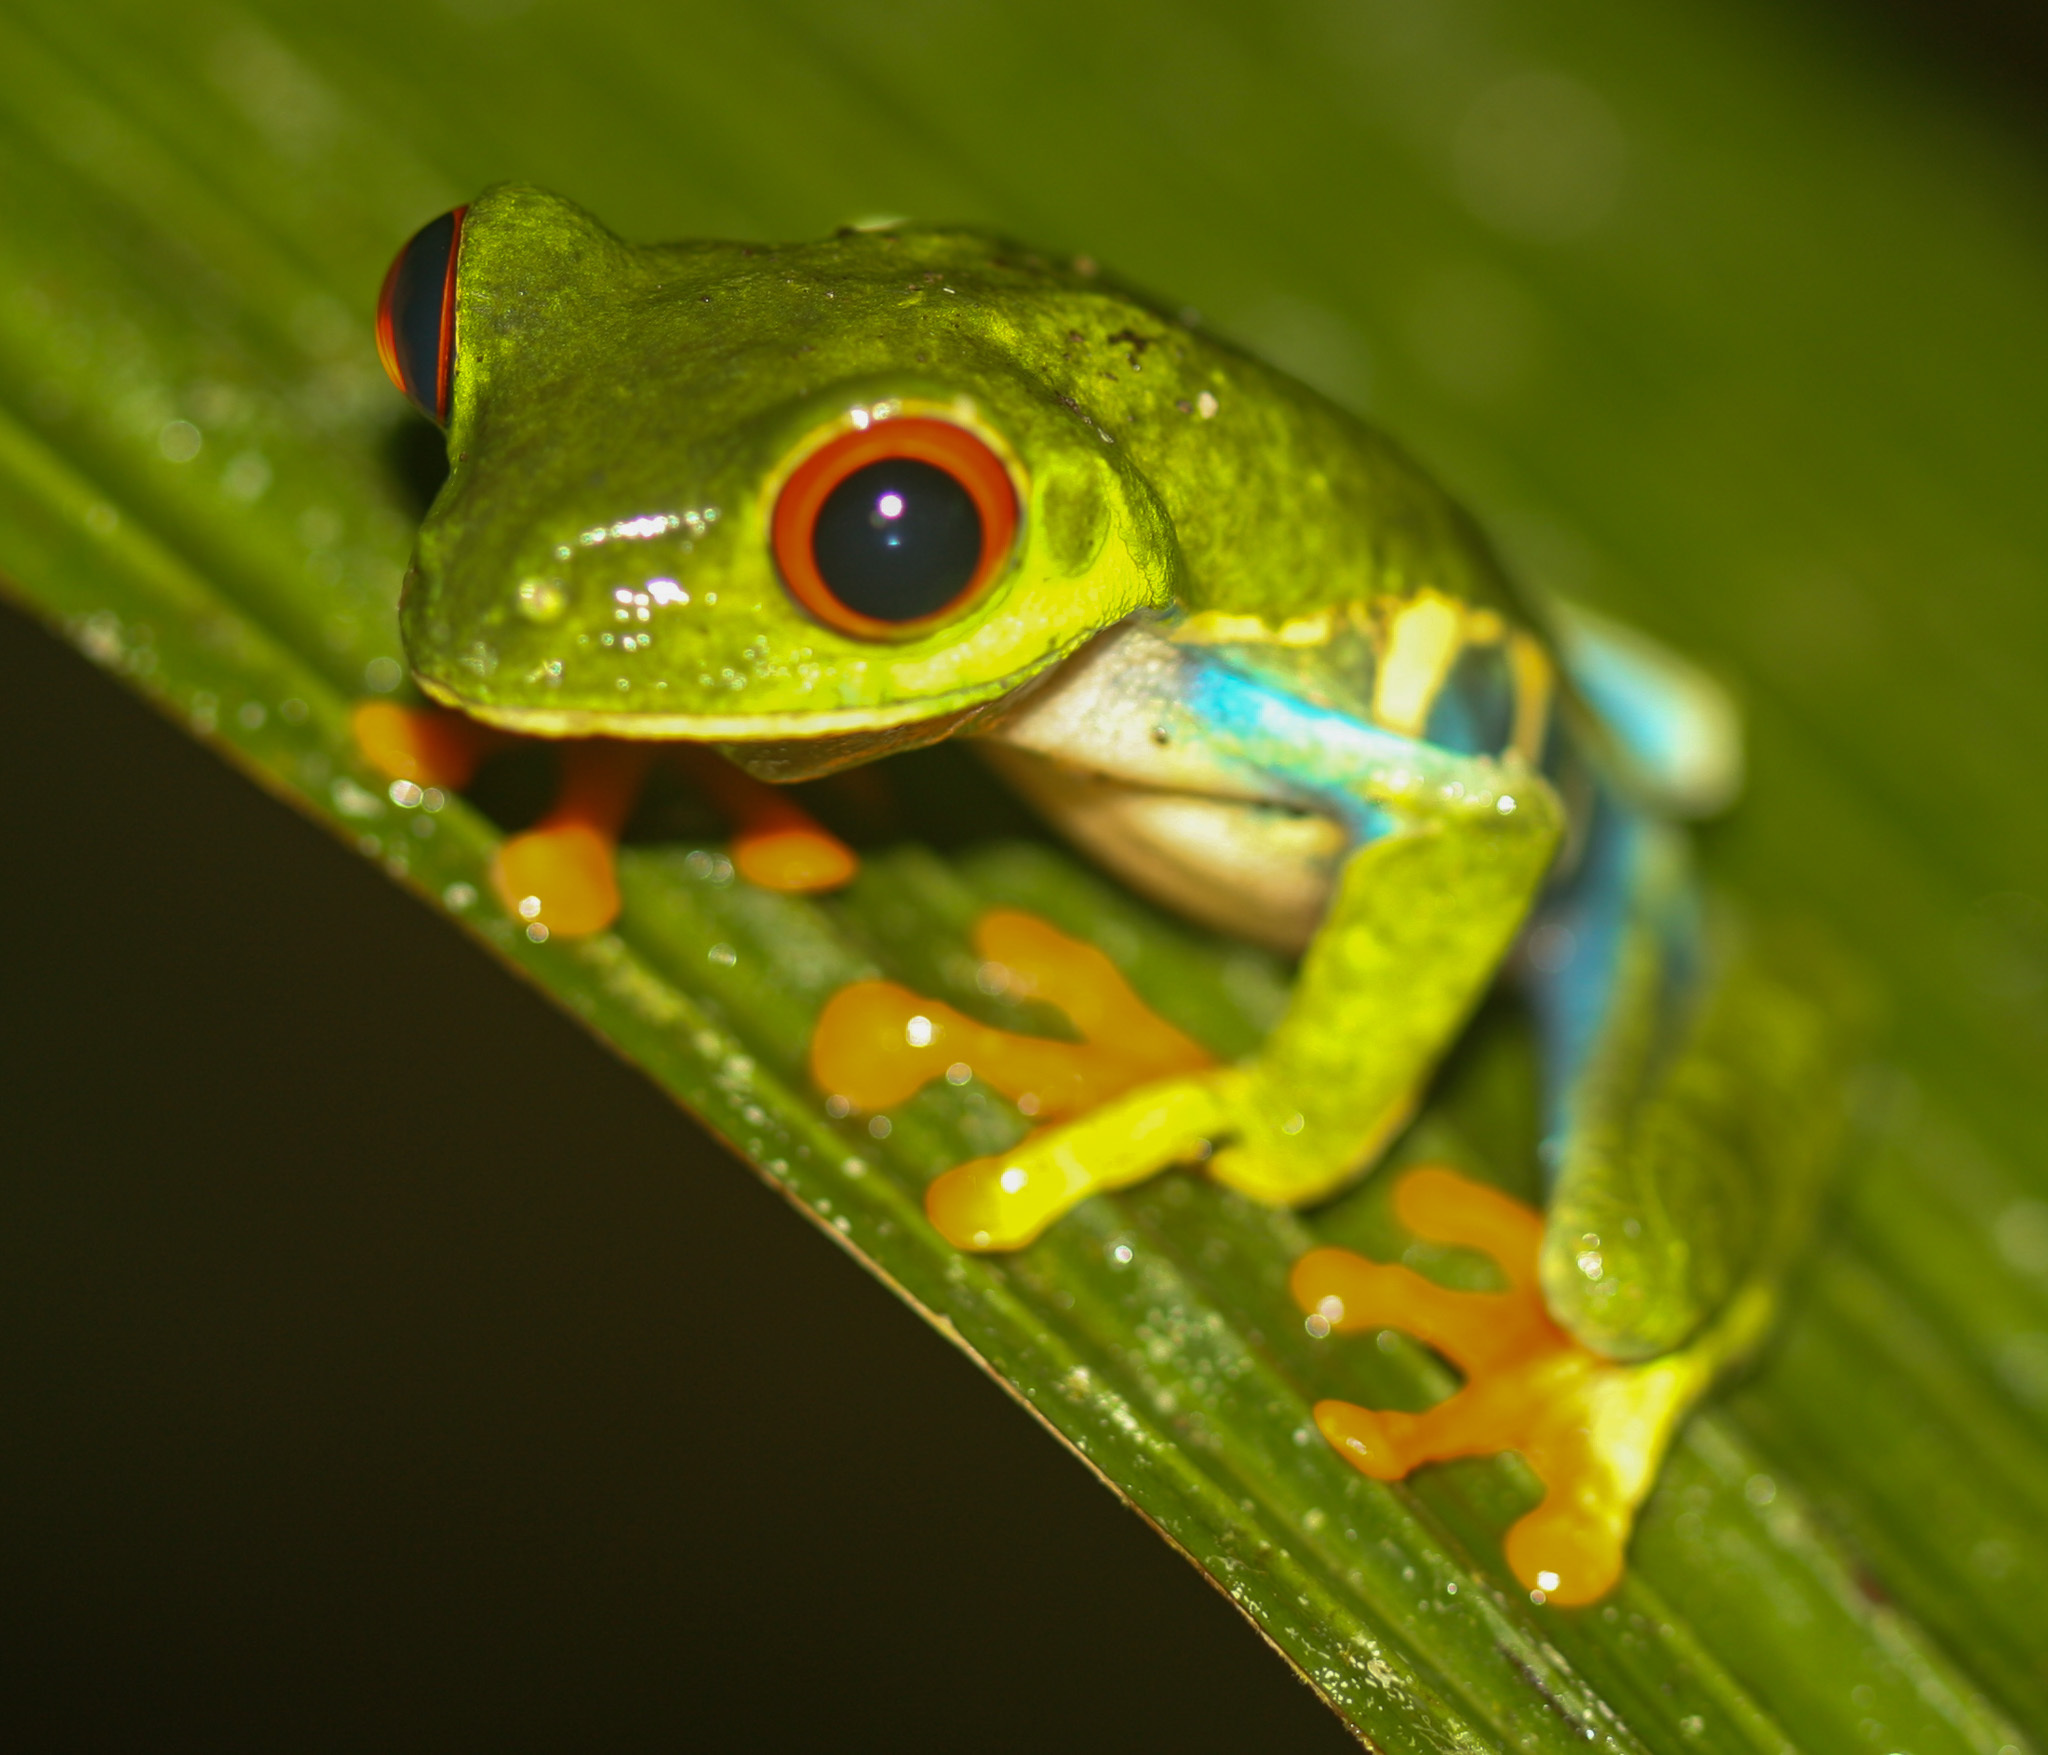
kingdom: Animalia
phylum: Chordata
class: Amphibia
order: Anura
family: Phyllomedusidae
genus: Agalychnis
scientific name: Agalychnis callidryas
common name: Red-eyed treefrog
